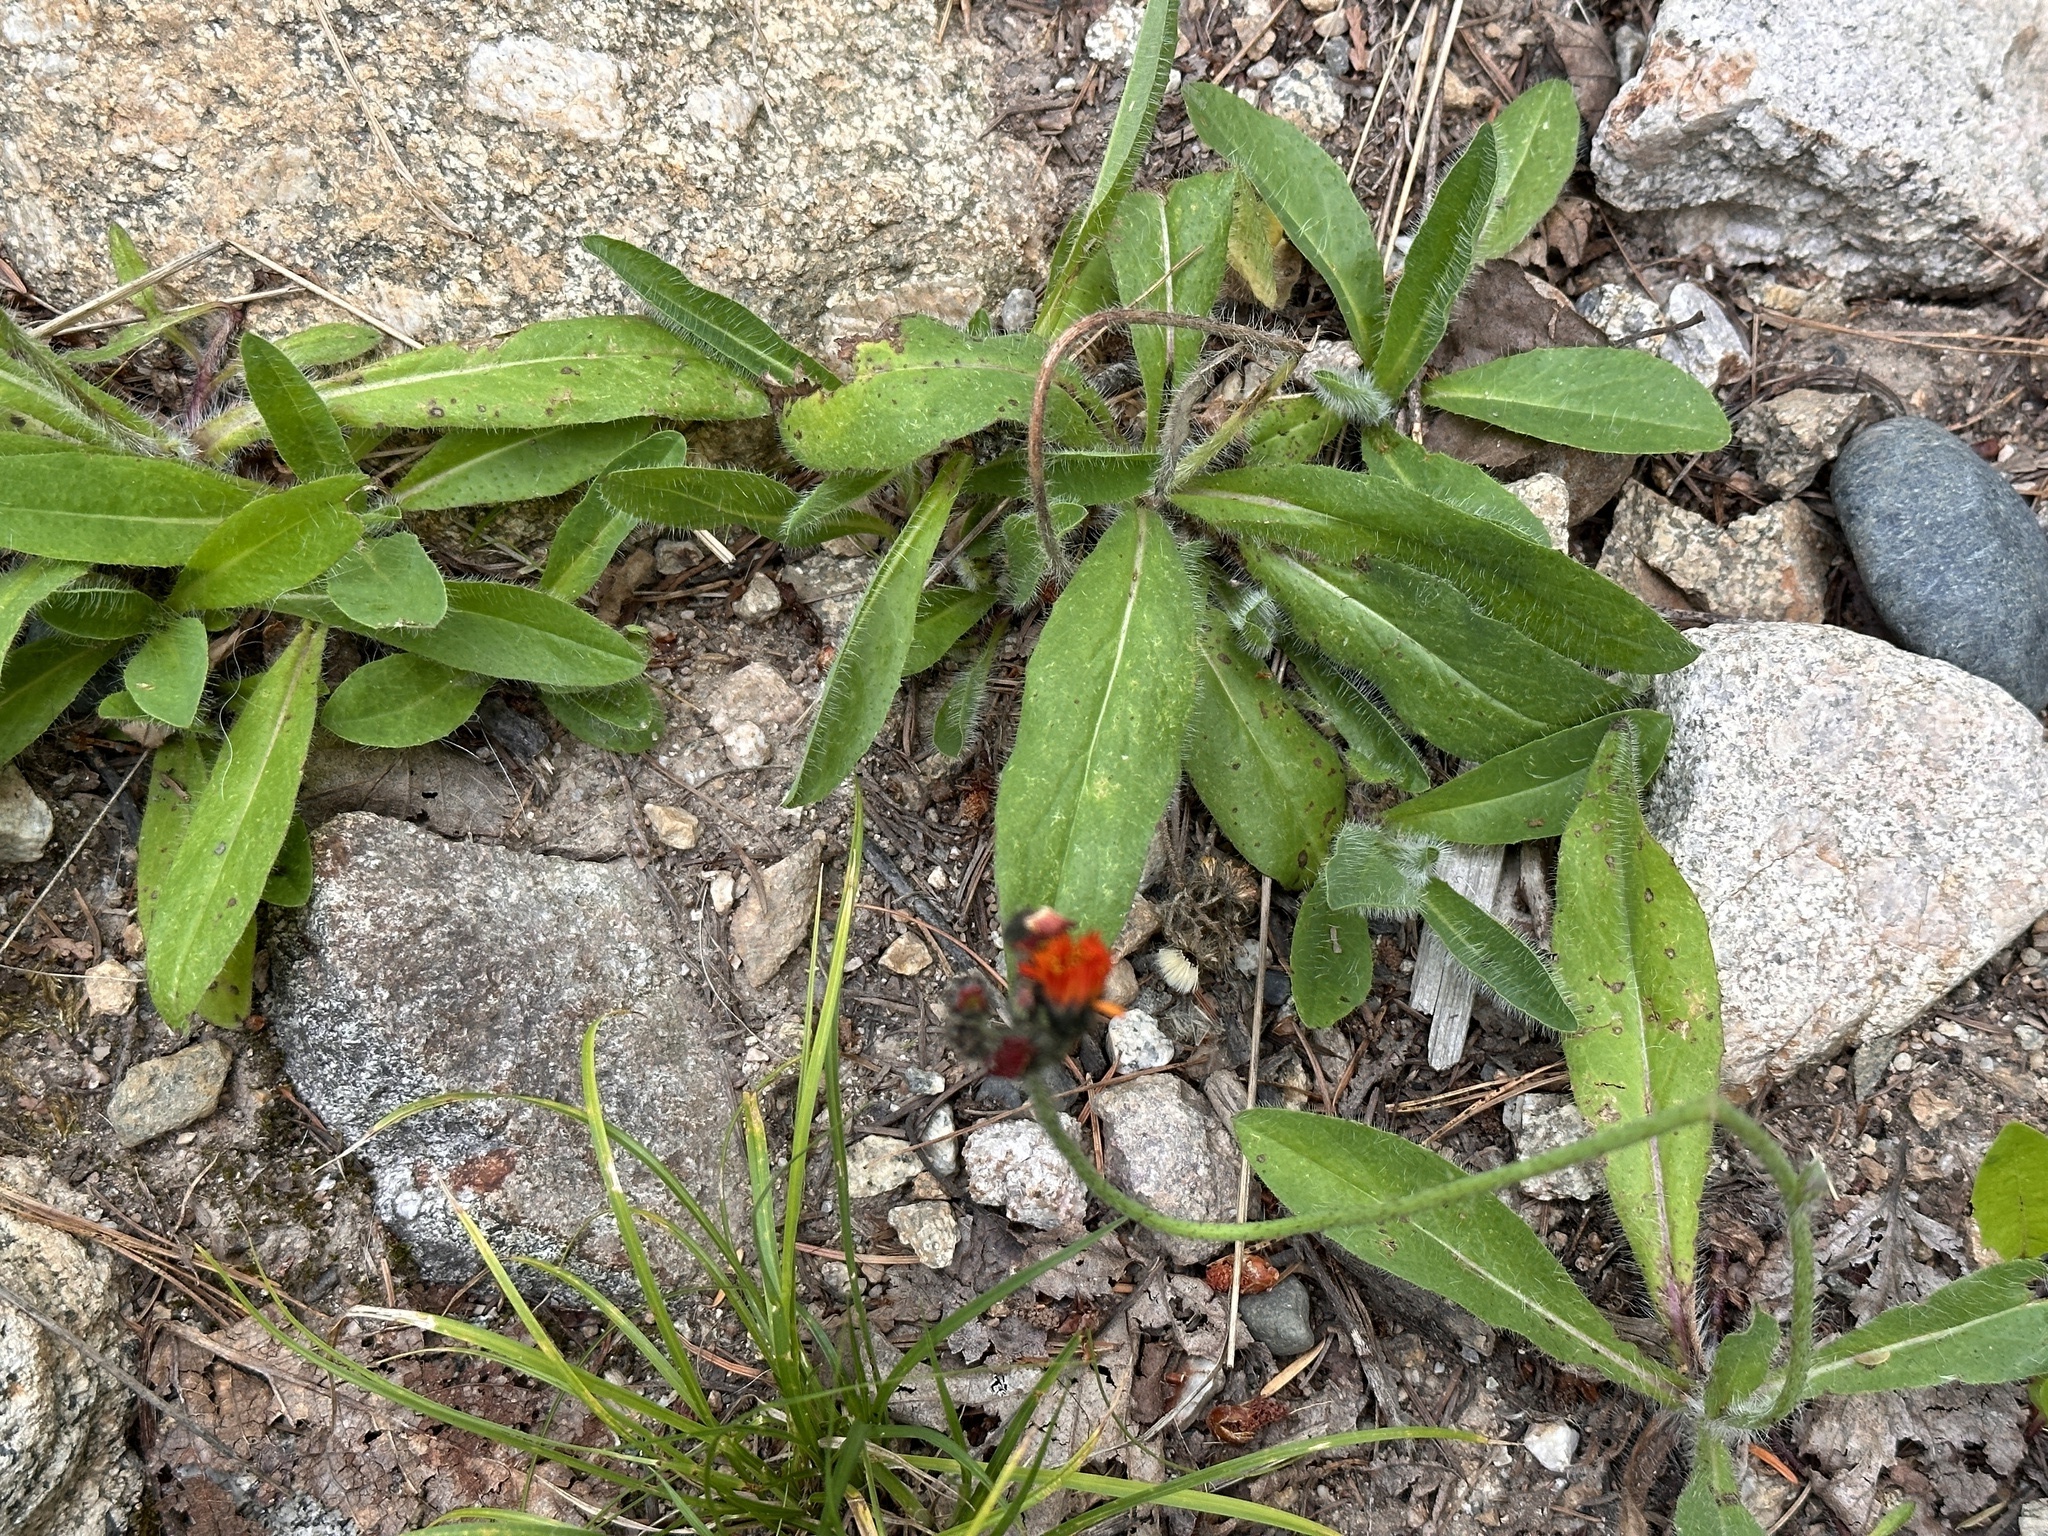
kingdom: Plantae
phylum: Tracheophyta
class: Magnoliopsida
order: Asterales
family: Asteraceae
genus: Pilosella
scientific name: Pilosella aurantiaca
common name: Fox-and-cubs
